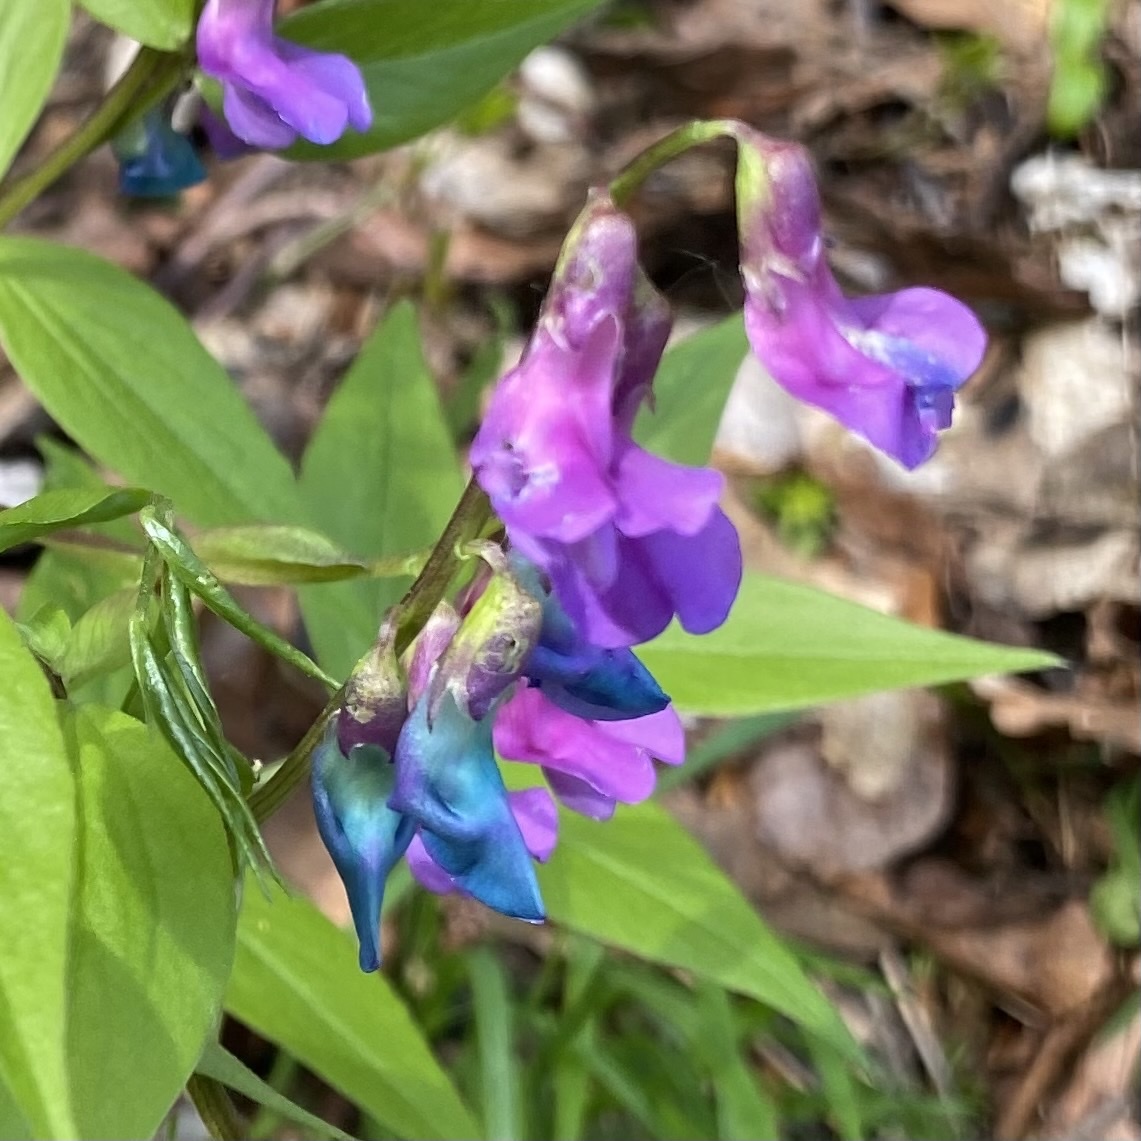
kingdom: Plantae
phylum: Tracheophyta
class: Magnoliopsida
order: Fabales
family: Fabaceae
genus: Lathyrus
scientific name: Lathyrus vernus
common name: Spring pea
